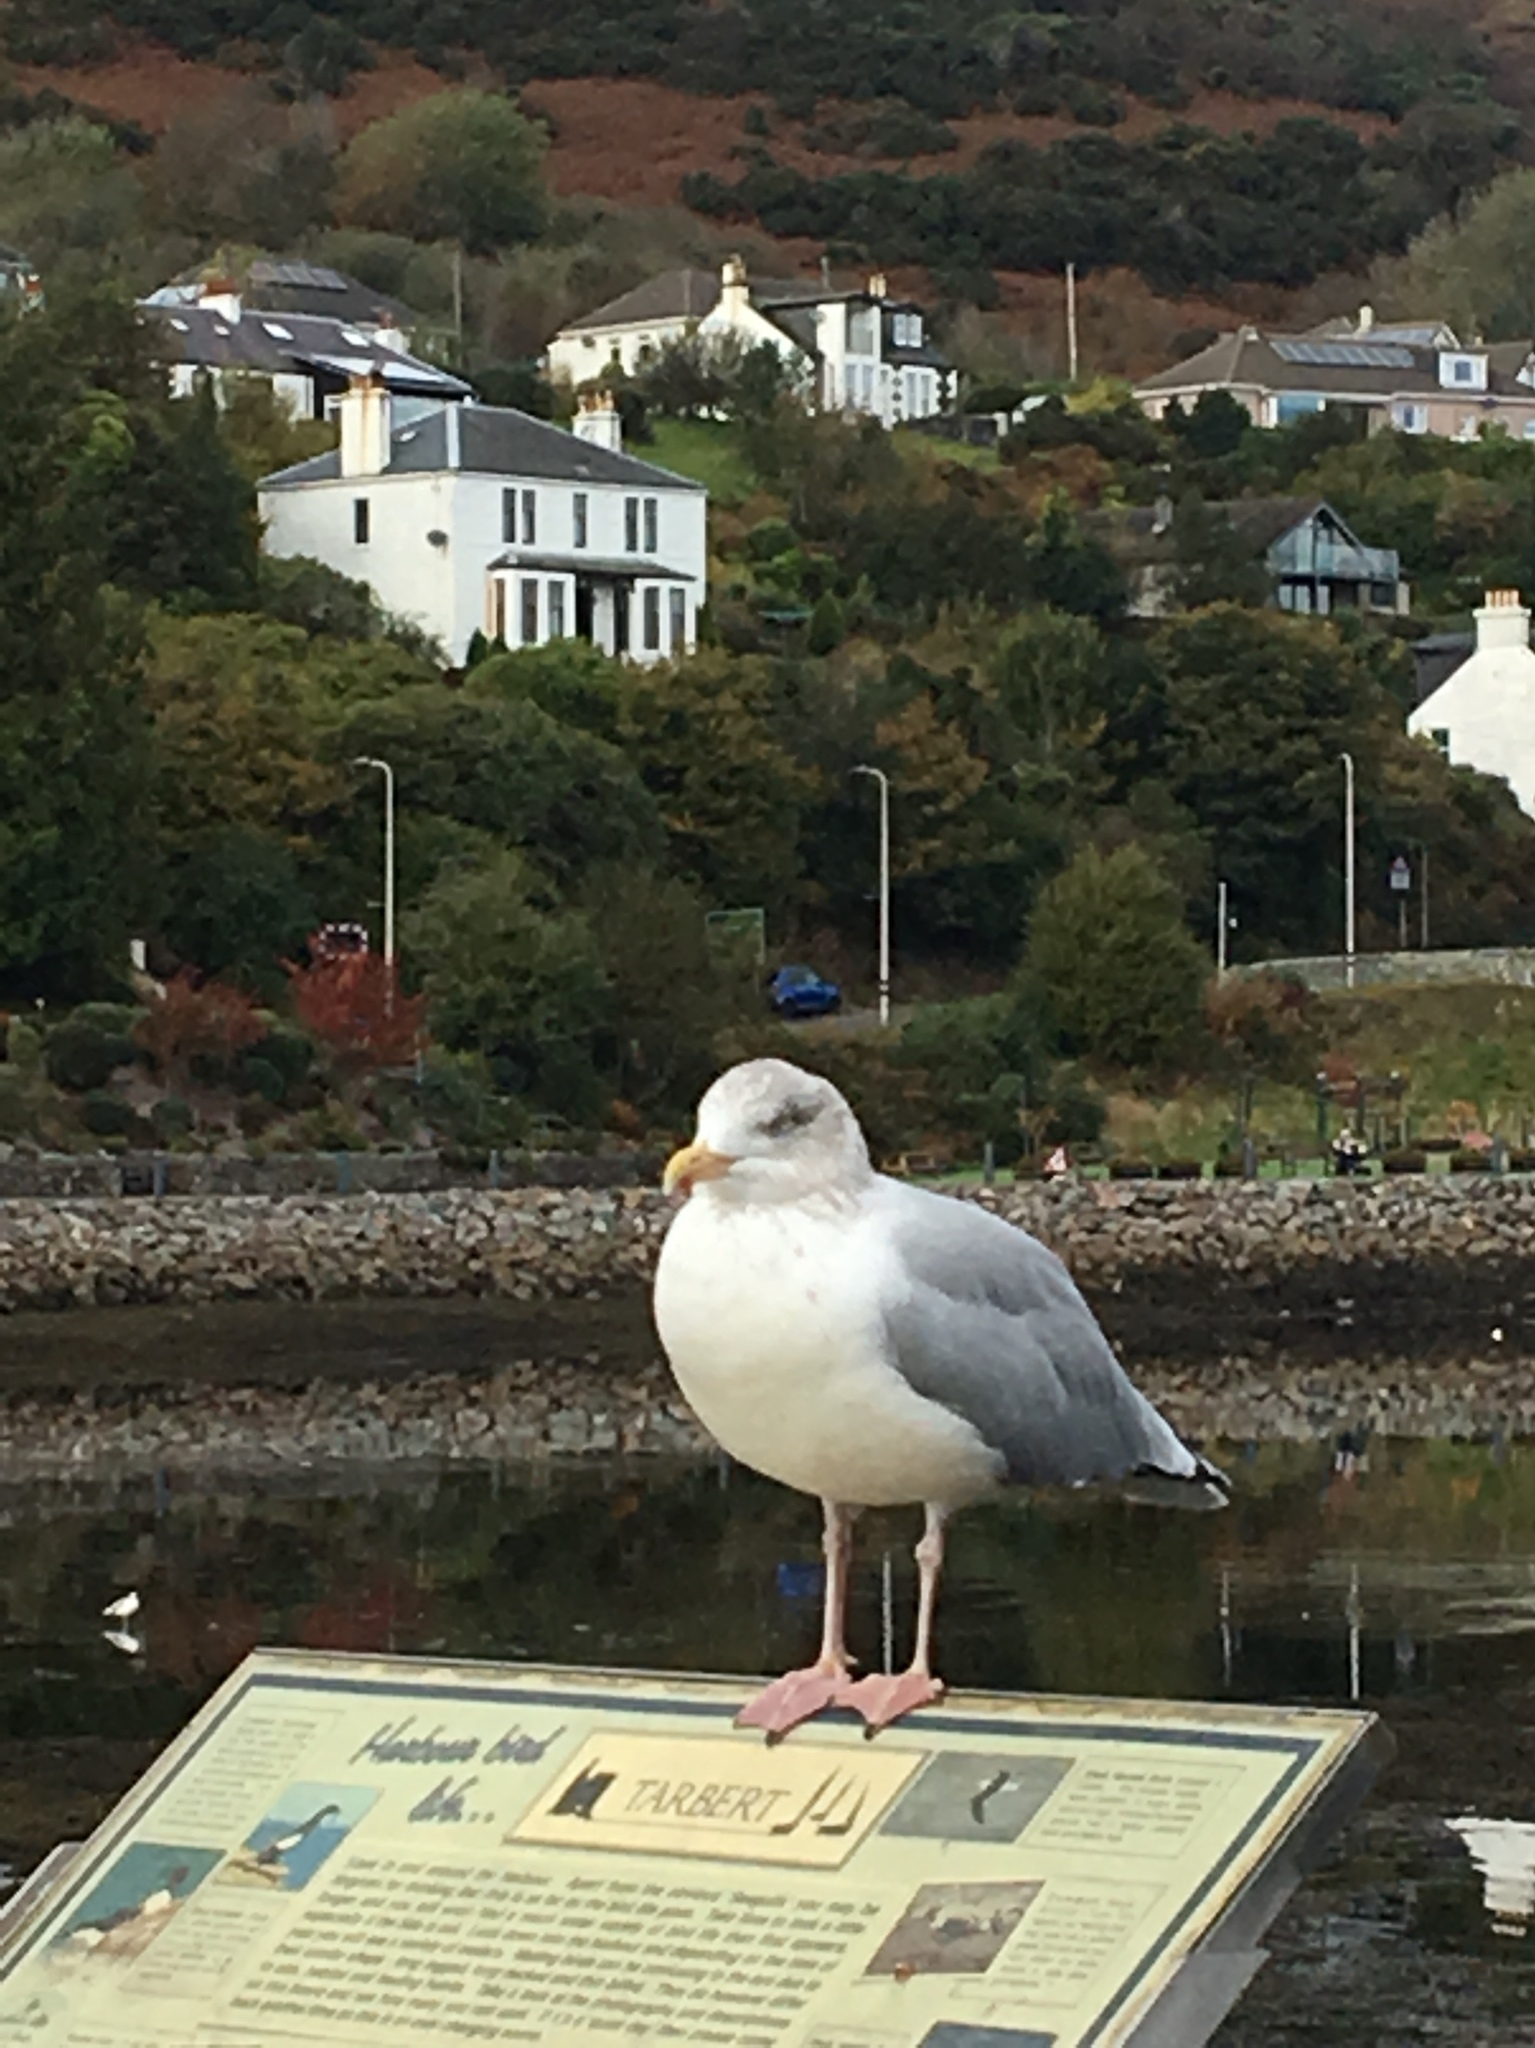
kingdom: Animalia
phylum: Chordata
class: Aves
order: Charadriiformes
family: Laridae
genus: Larus
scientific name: Larus argentatus
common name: Herring gull
